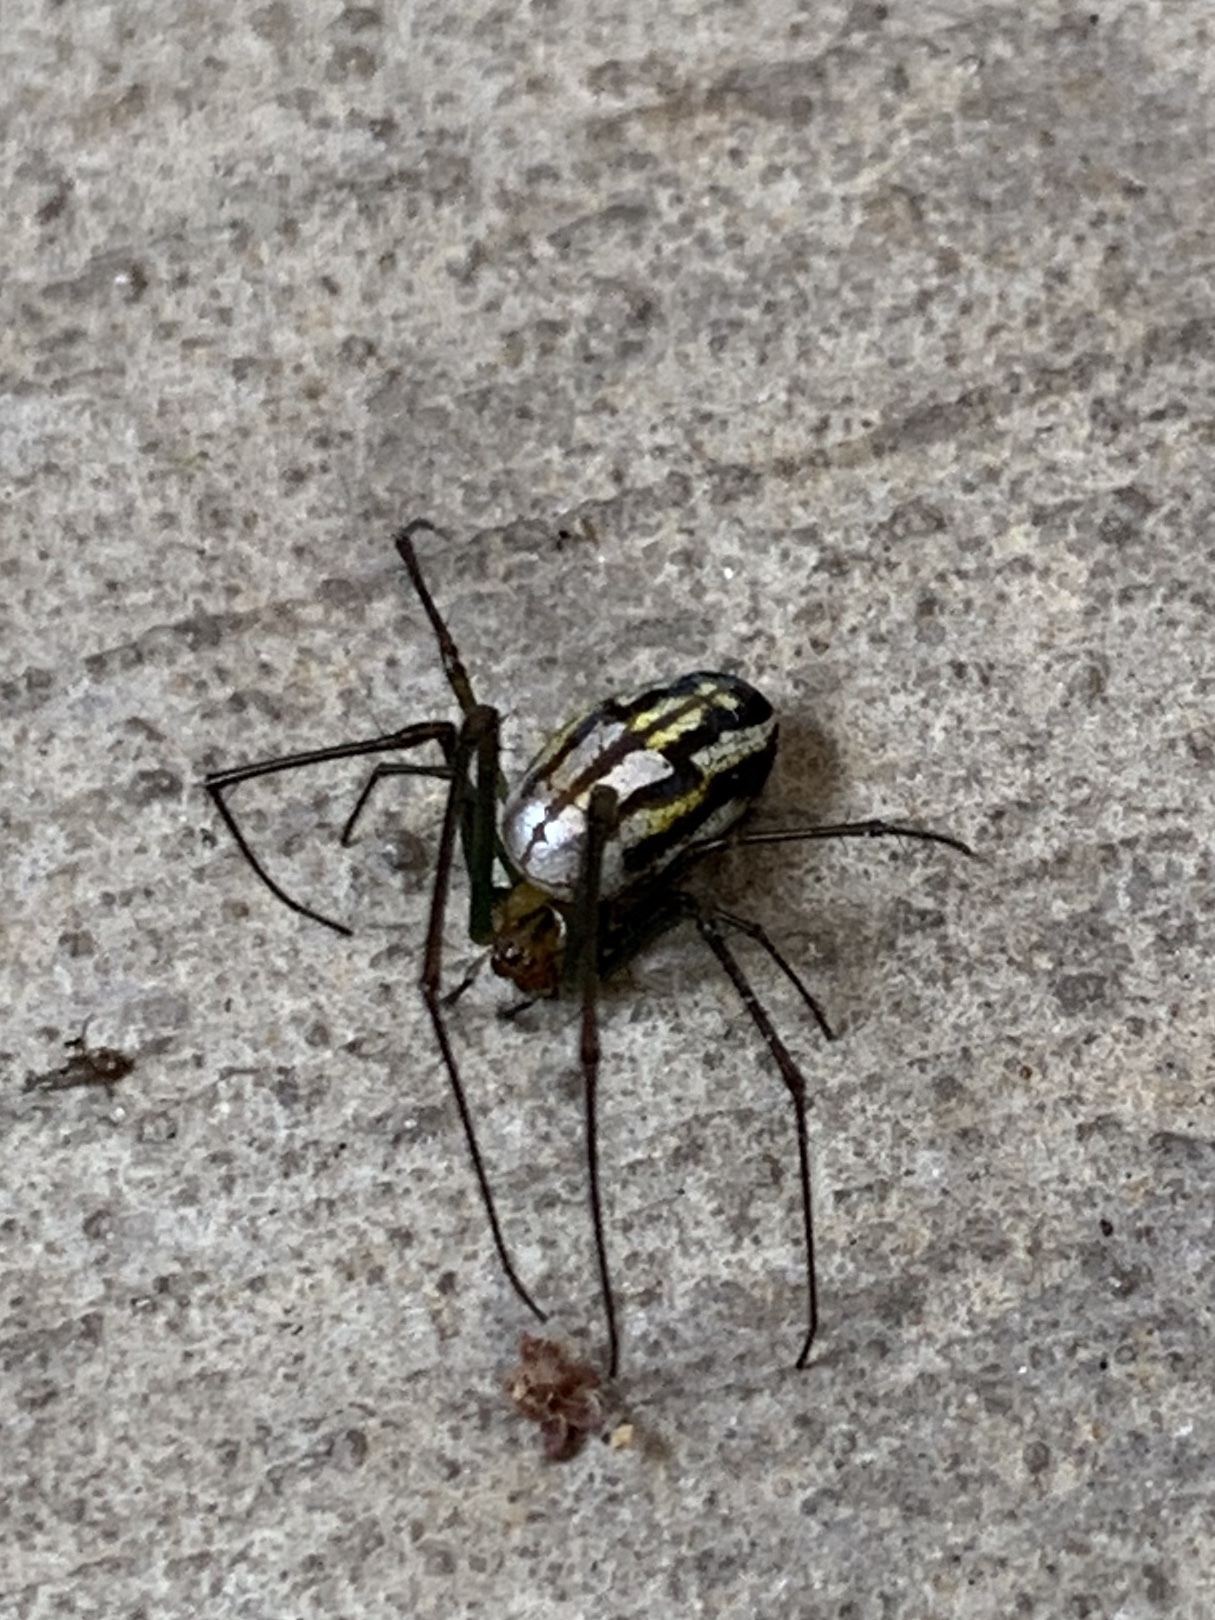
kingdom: Animalia
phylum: Arthropoda
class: Arachnida
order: Araneae
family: Tetragnathidae
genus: Leucauge
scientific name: Leucauge argyra
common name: Longjawed orb weavers
